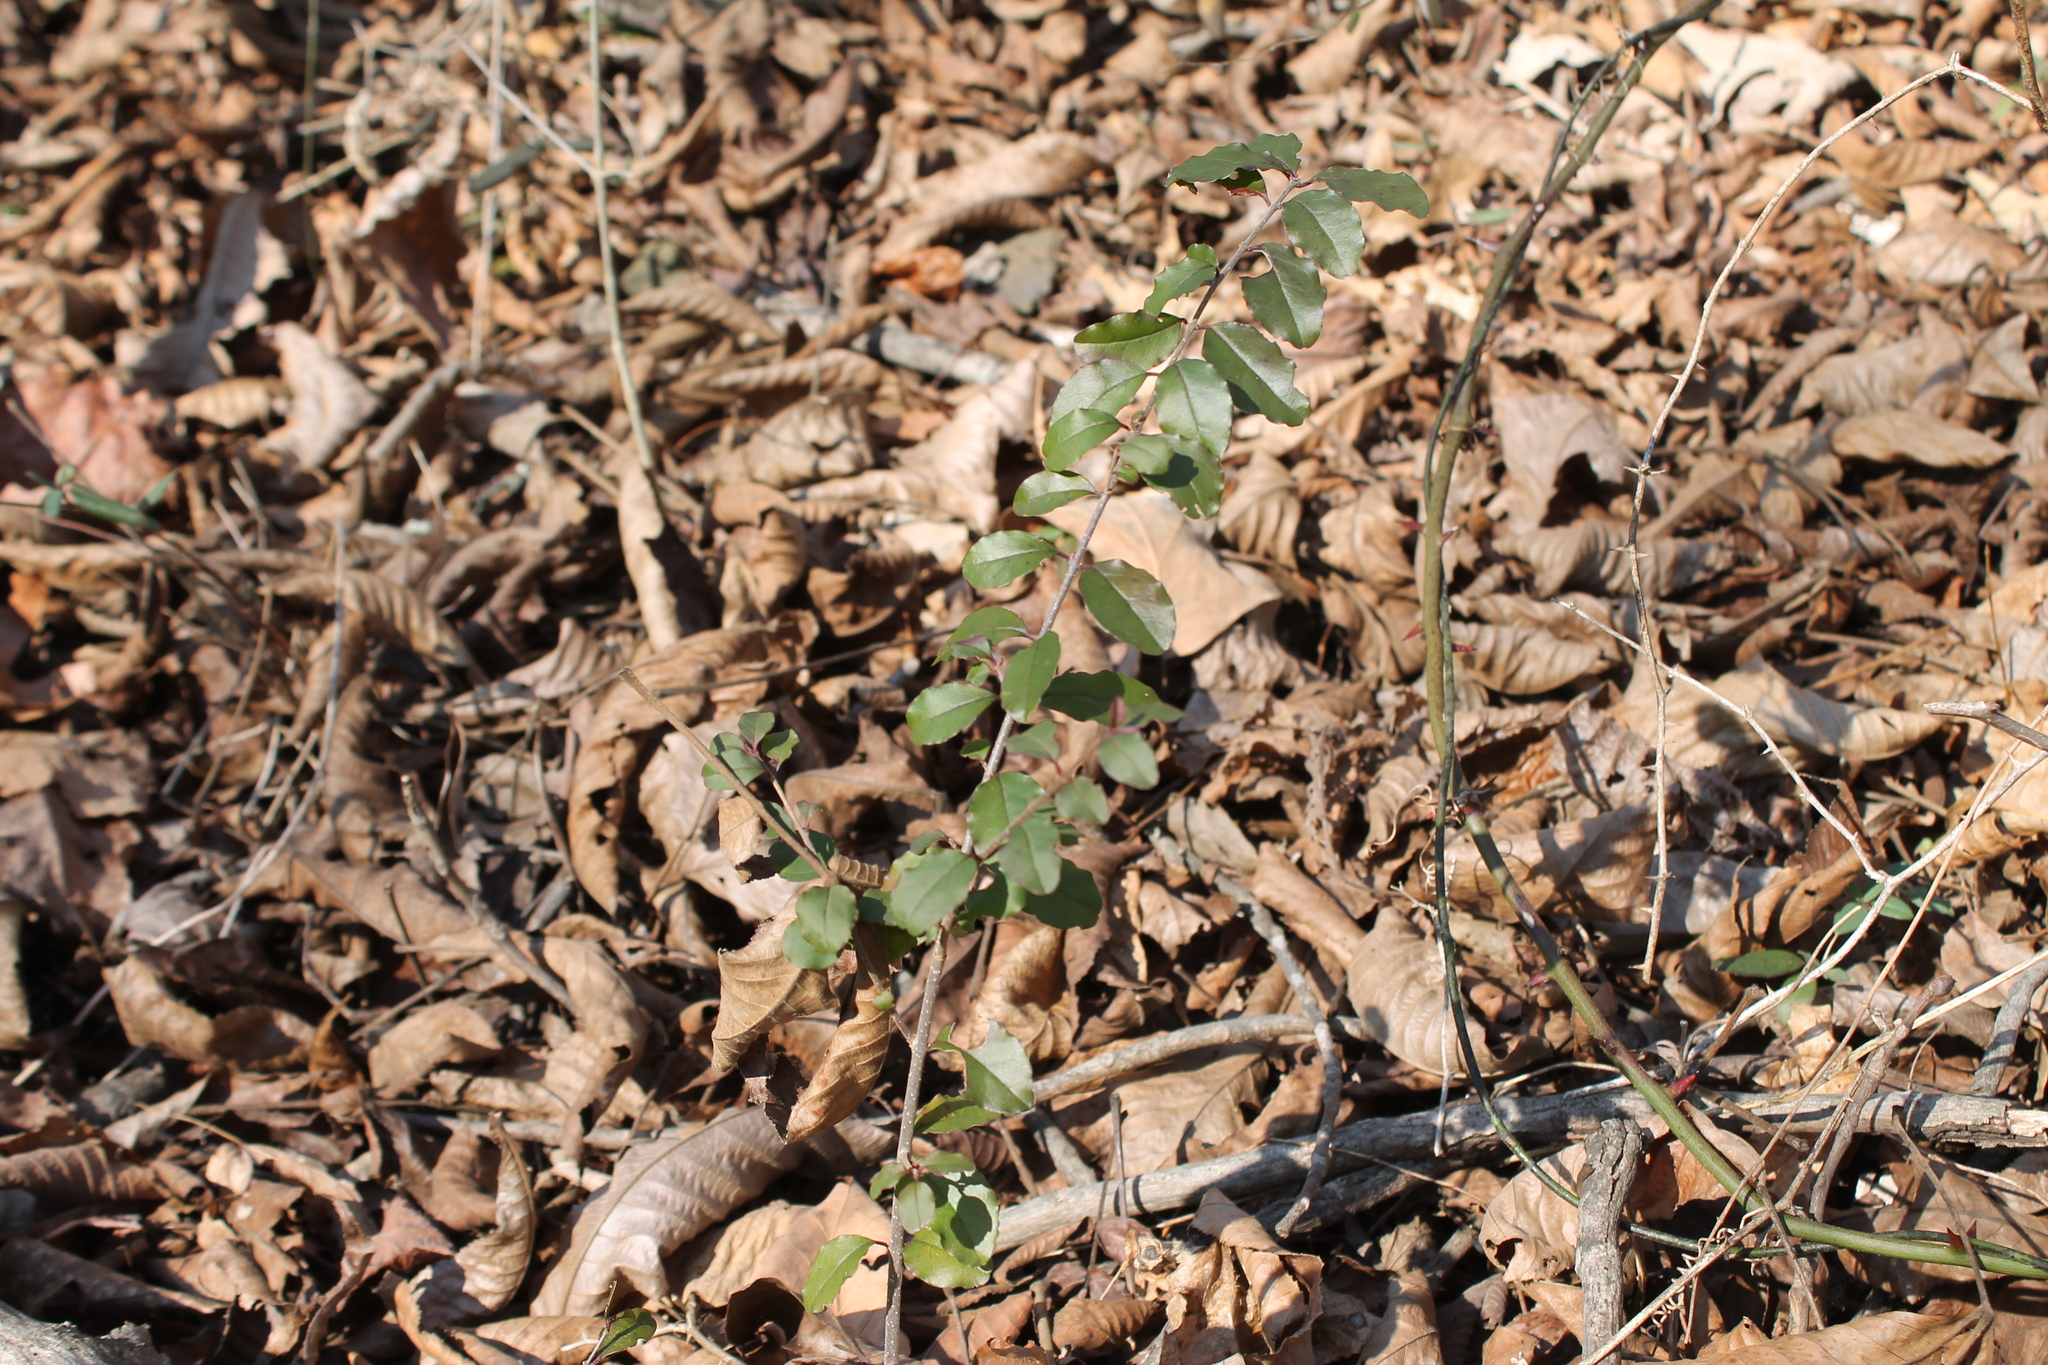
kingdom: Plantae
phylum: Tracheophyta
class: Magnoliopsida
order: Lamiales
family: Oleaceae
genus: Ligustrum
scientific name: Ligustrum sinense
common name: Chinese privet
